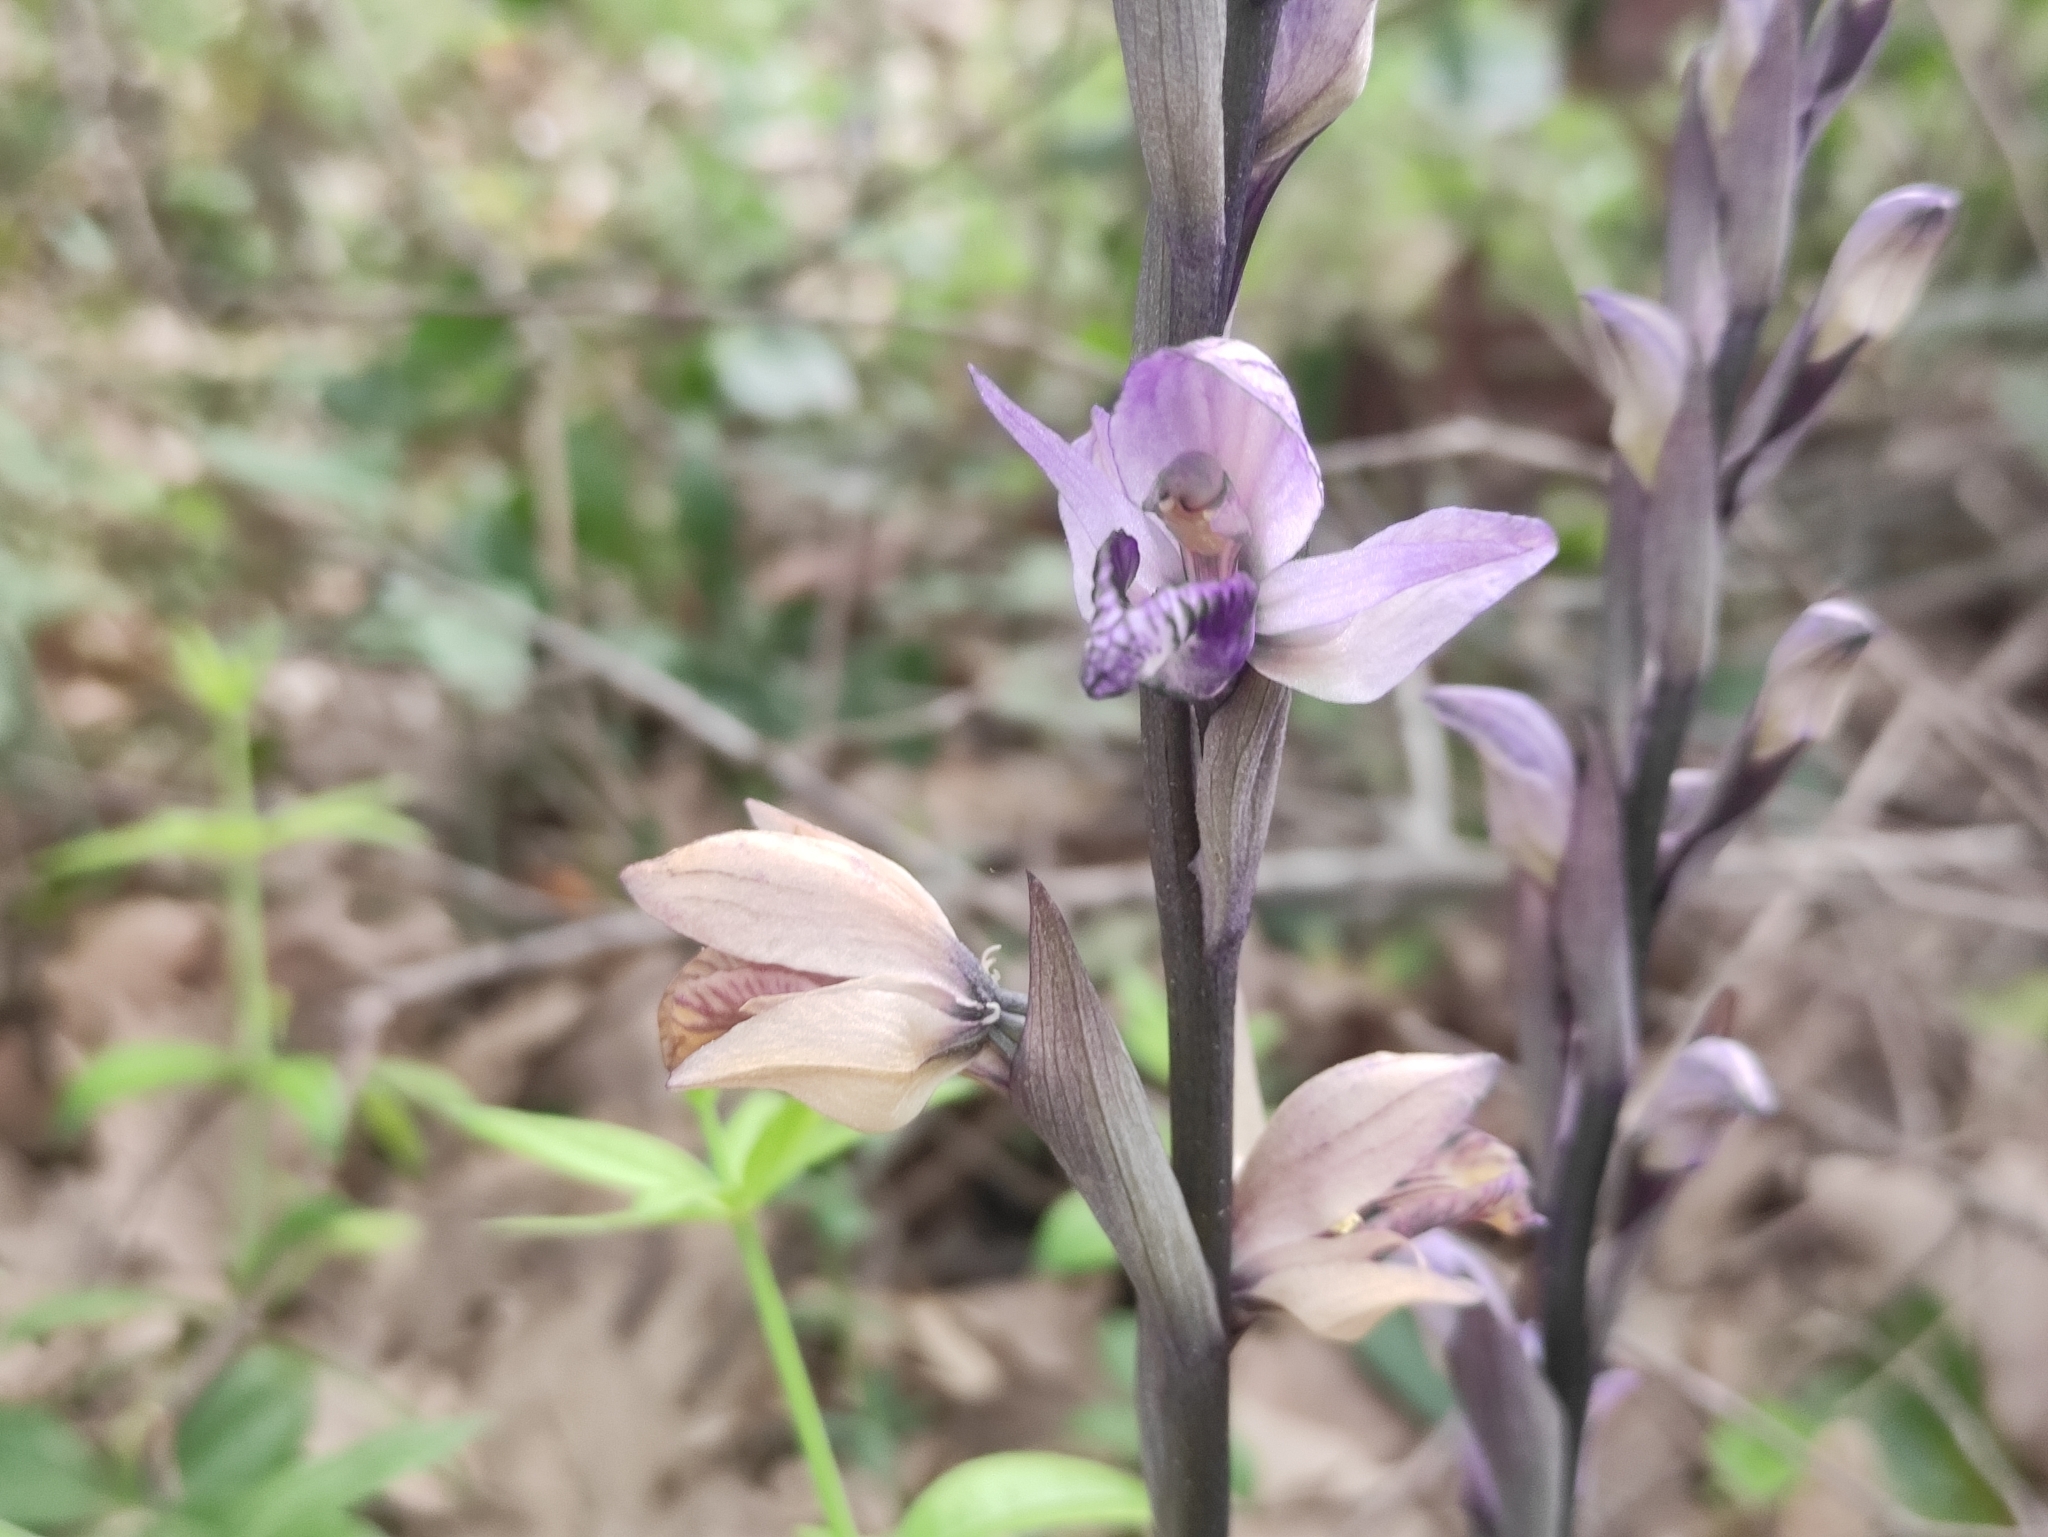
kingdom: Plantae
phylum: Tracheophyta
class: Liliopsida
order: Asparagales
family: Orchidaceae
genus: Limodorum
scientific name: Limodorum abortivum
